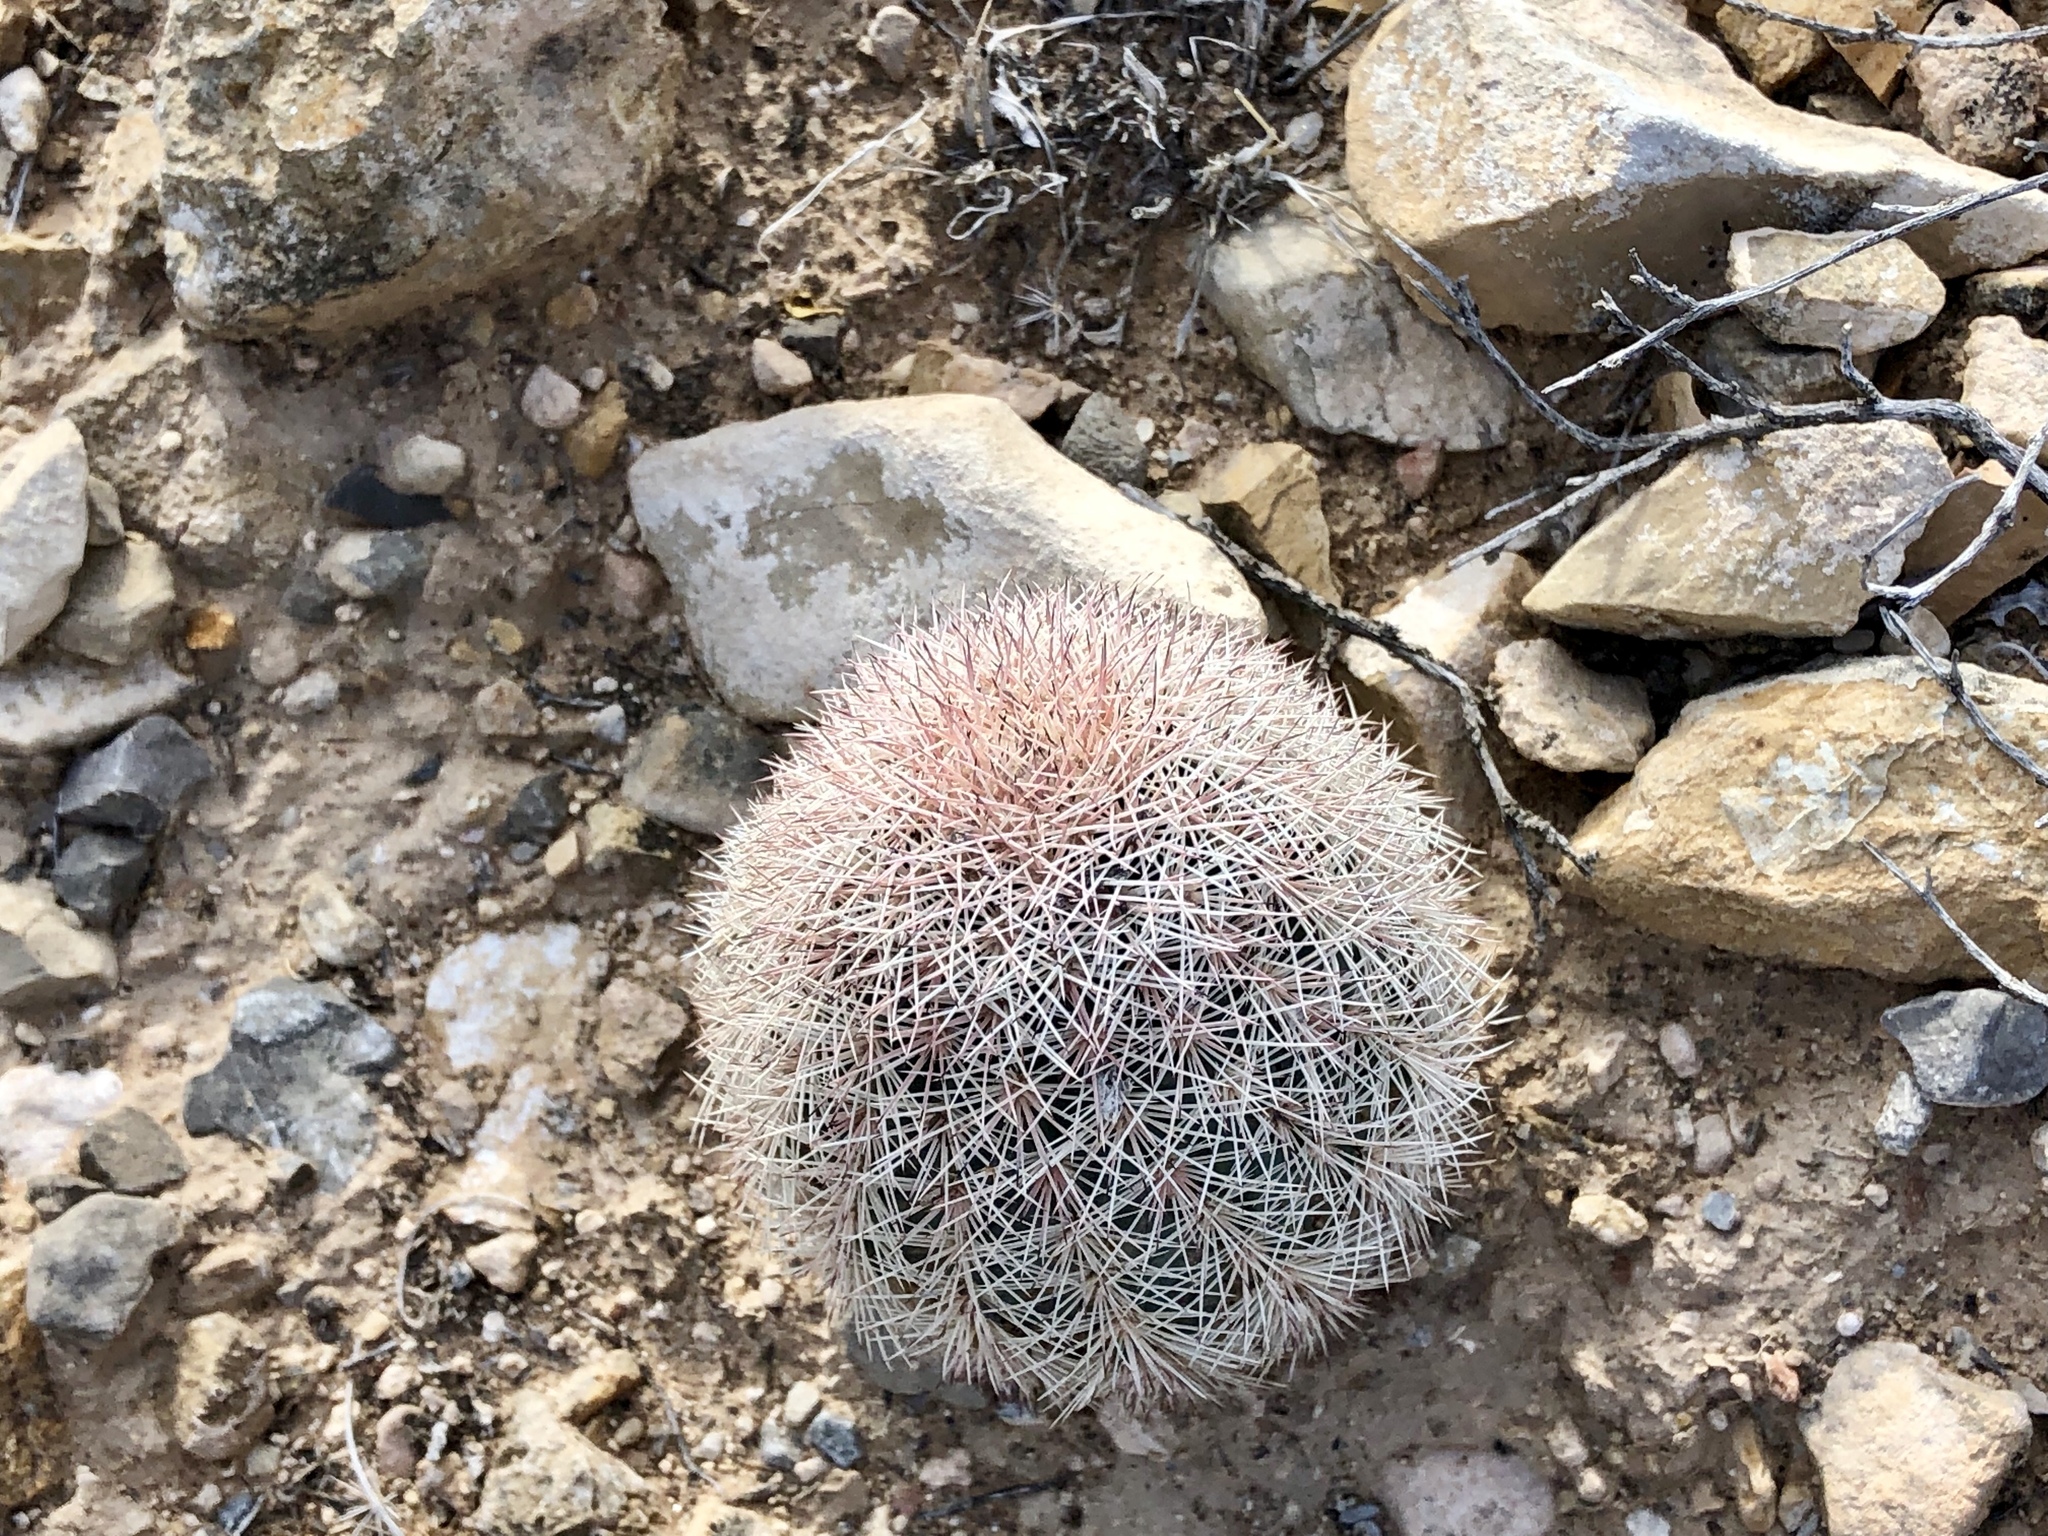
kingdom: Plantae
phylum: Tracheophyta
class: Magnoliopsida
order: Caryophyllales
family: Cactaceae
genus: Echinocereus
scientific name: Echinocereus dasyacanthus
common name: Spiny hedgehog cactus
